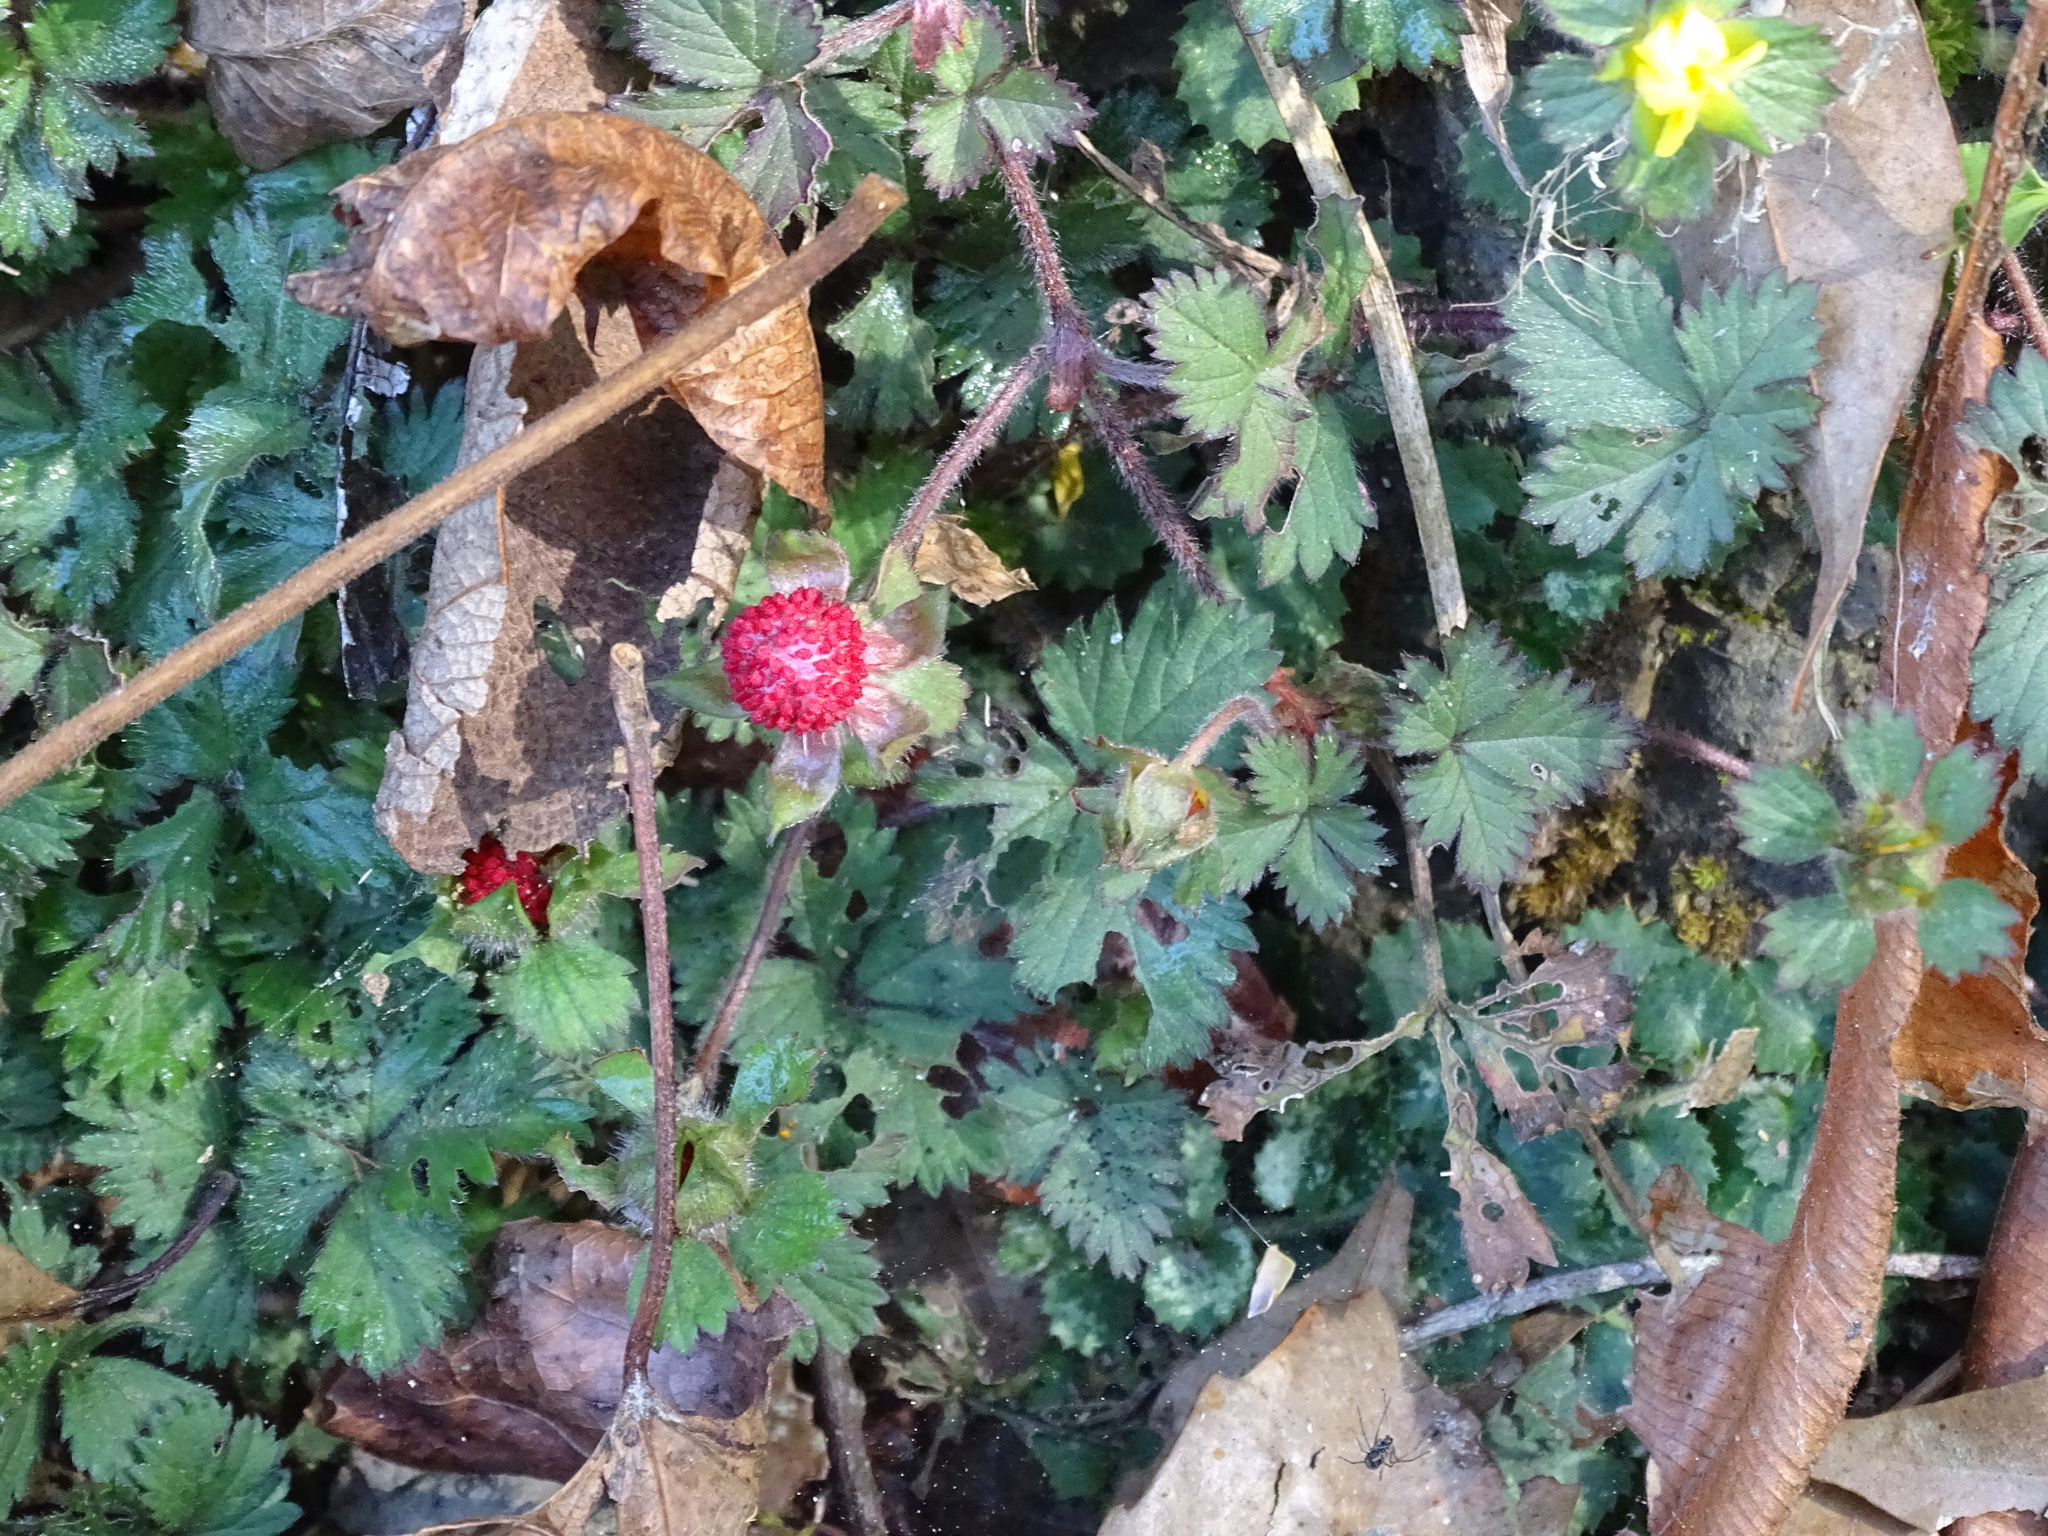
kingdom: Plantae
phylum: Tracheophyta
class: Magnoliopsida
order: Rosales
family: Rosaceae
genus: Potentilla
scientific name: Potentilla wallichiana
